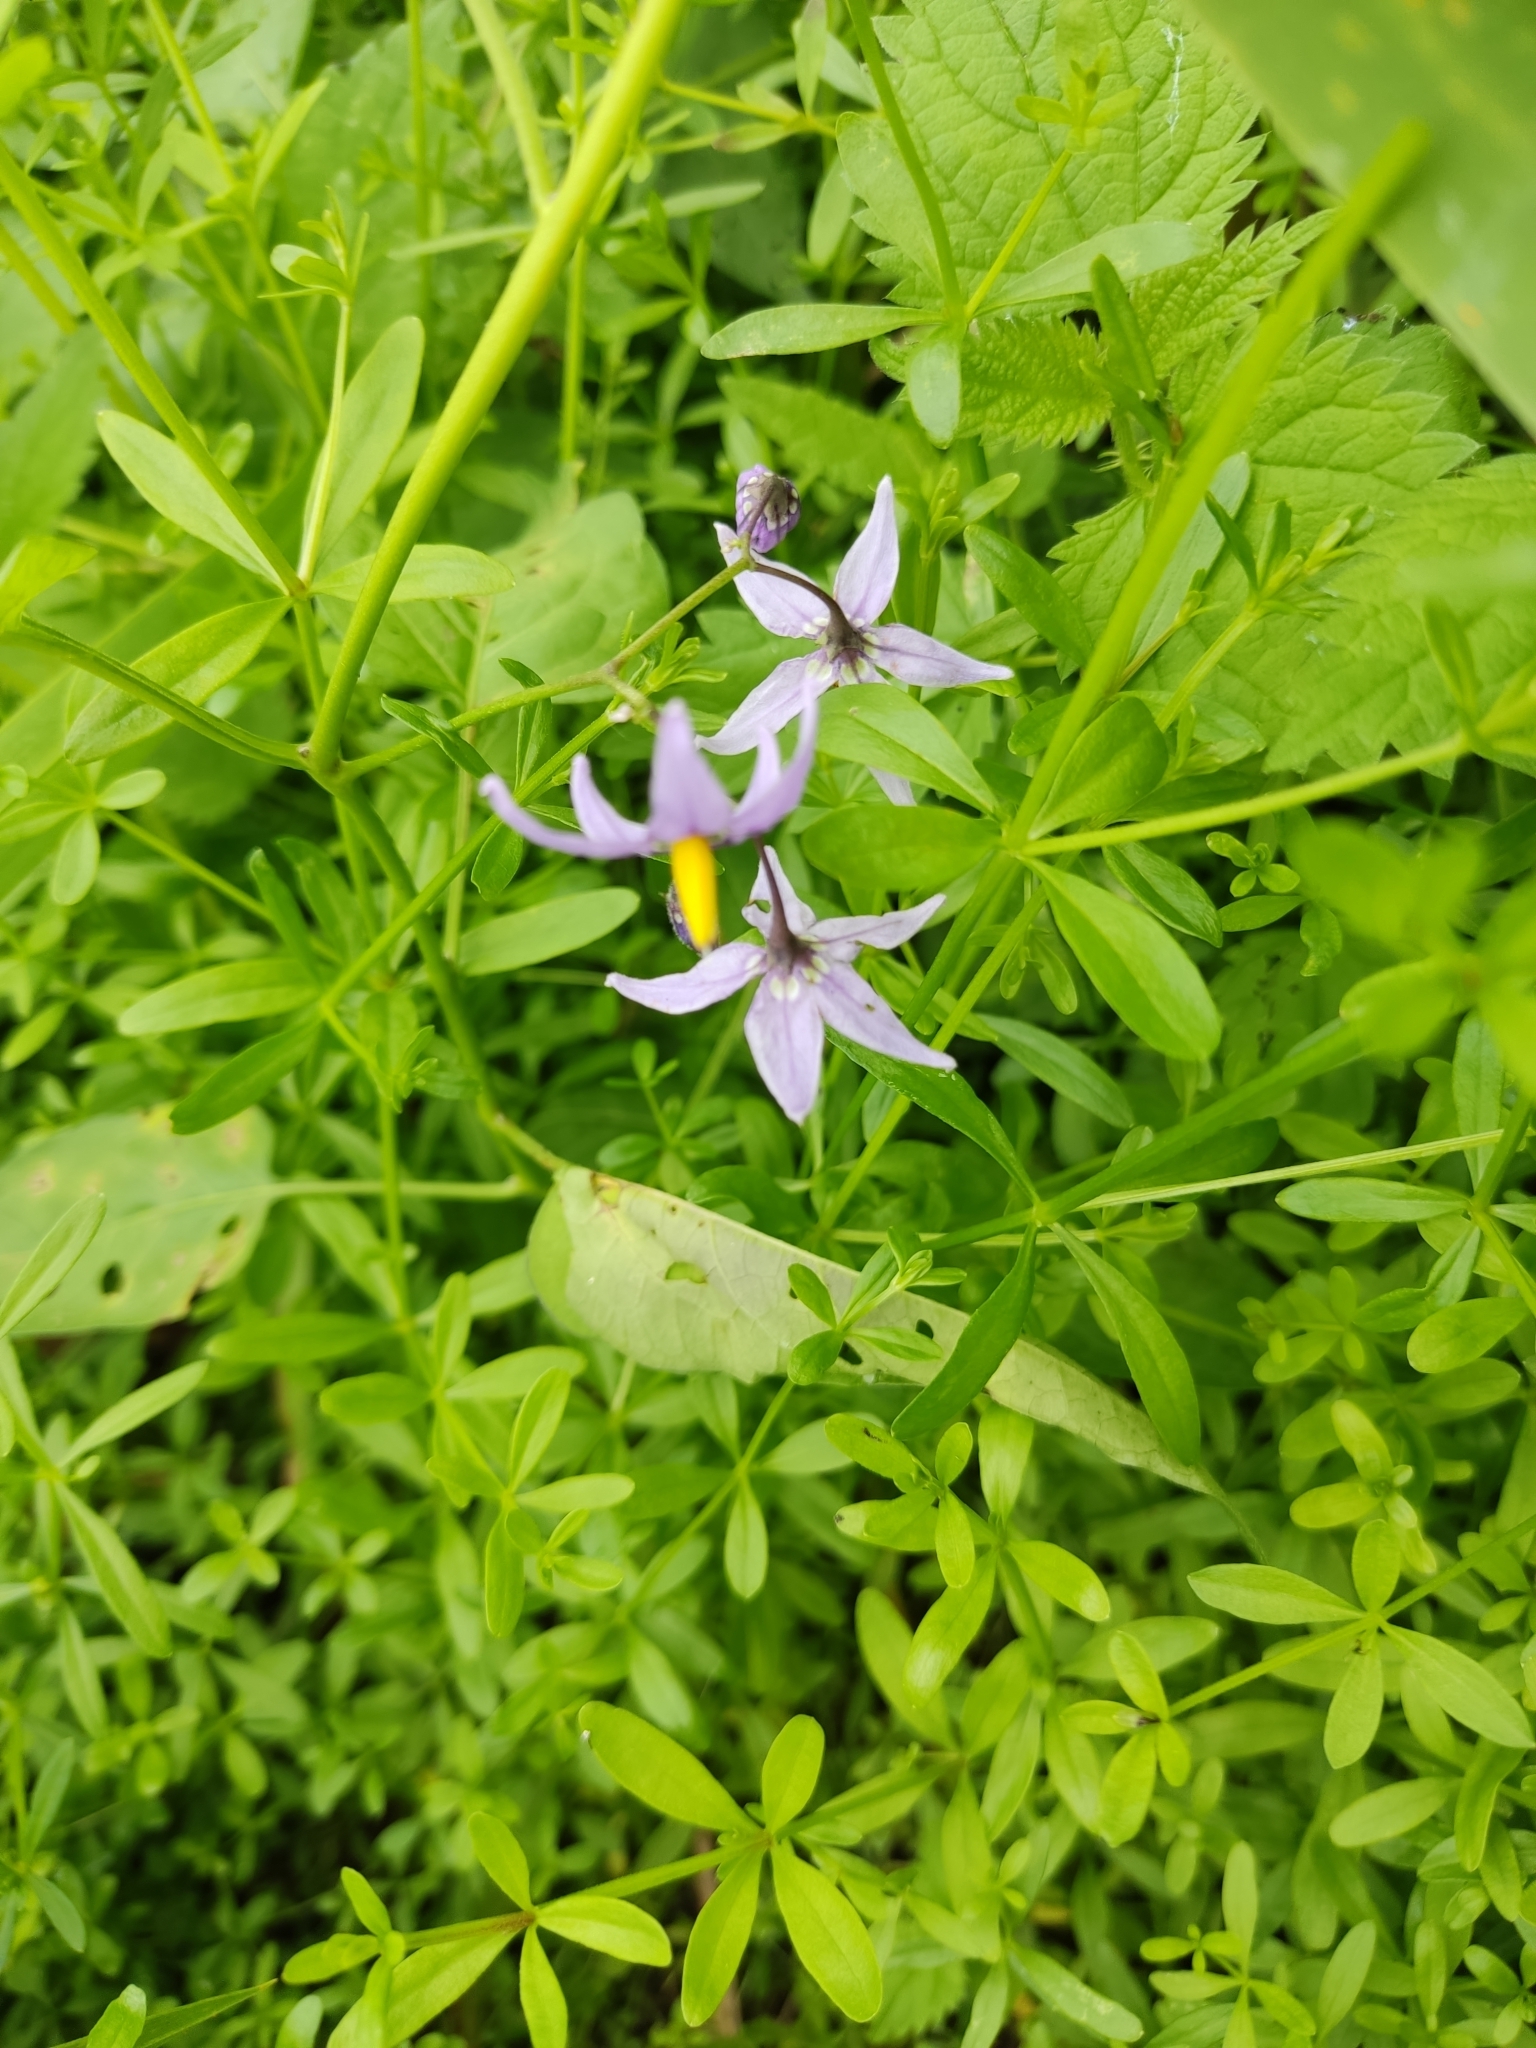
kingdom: Plantae
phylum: Tracheophyta
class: Magnoliopsida
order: Solanales
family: Solanaceae
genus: Solanum
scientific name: Solanum dulcamara
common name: Climbing nightshade
